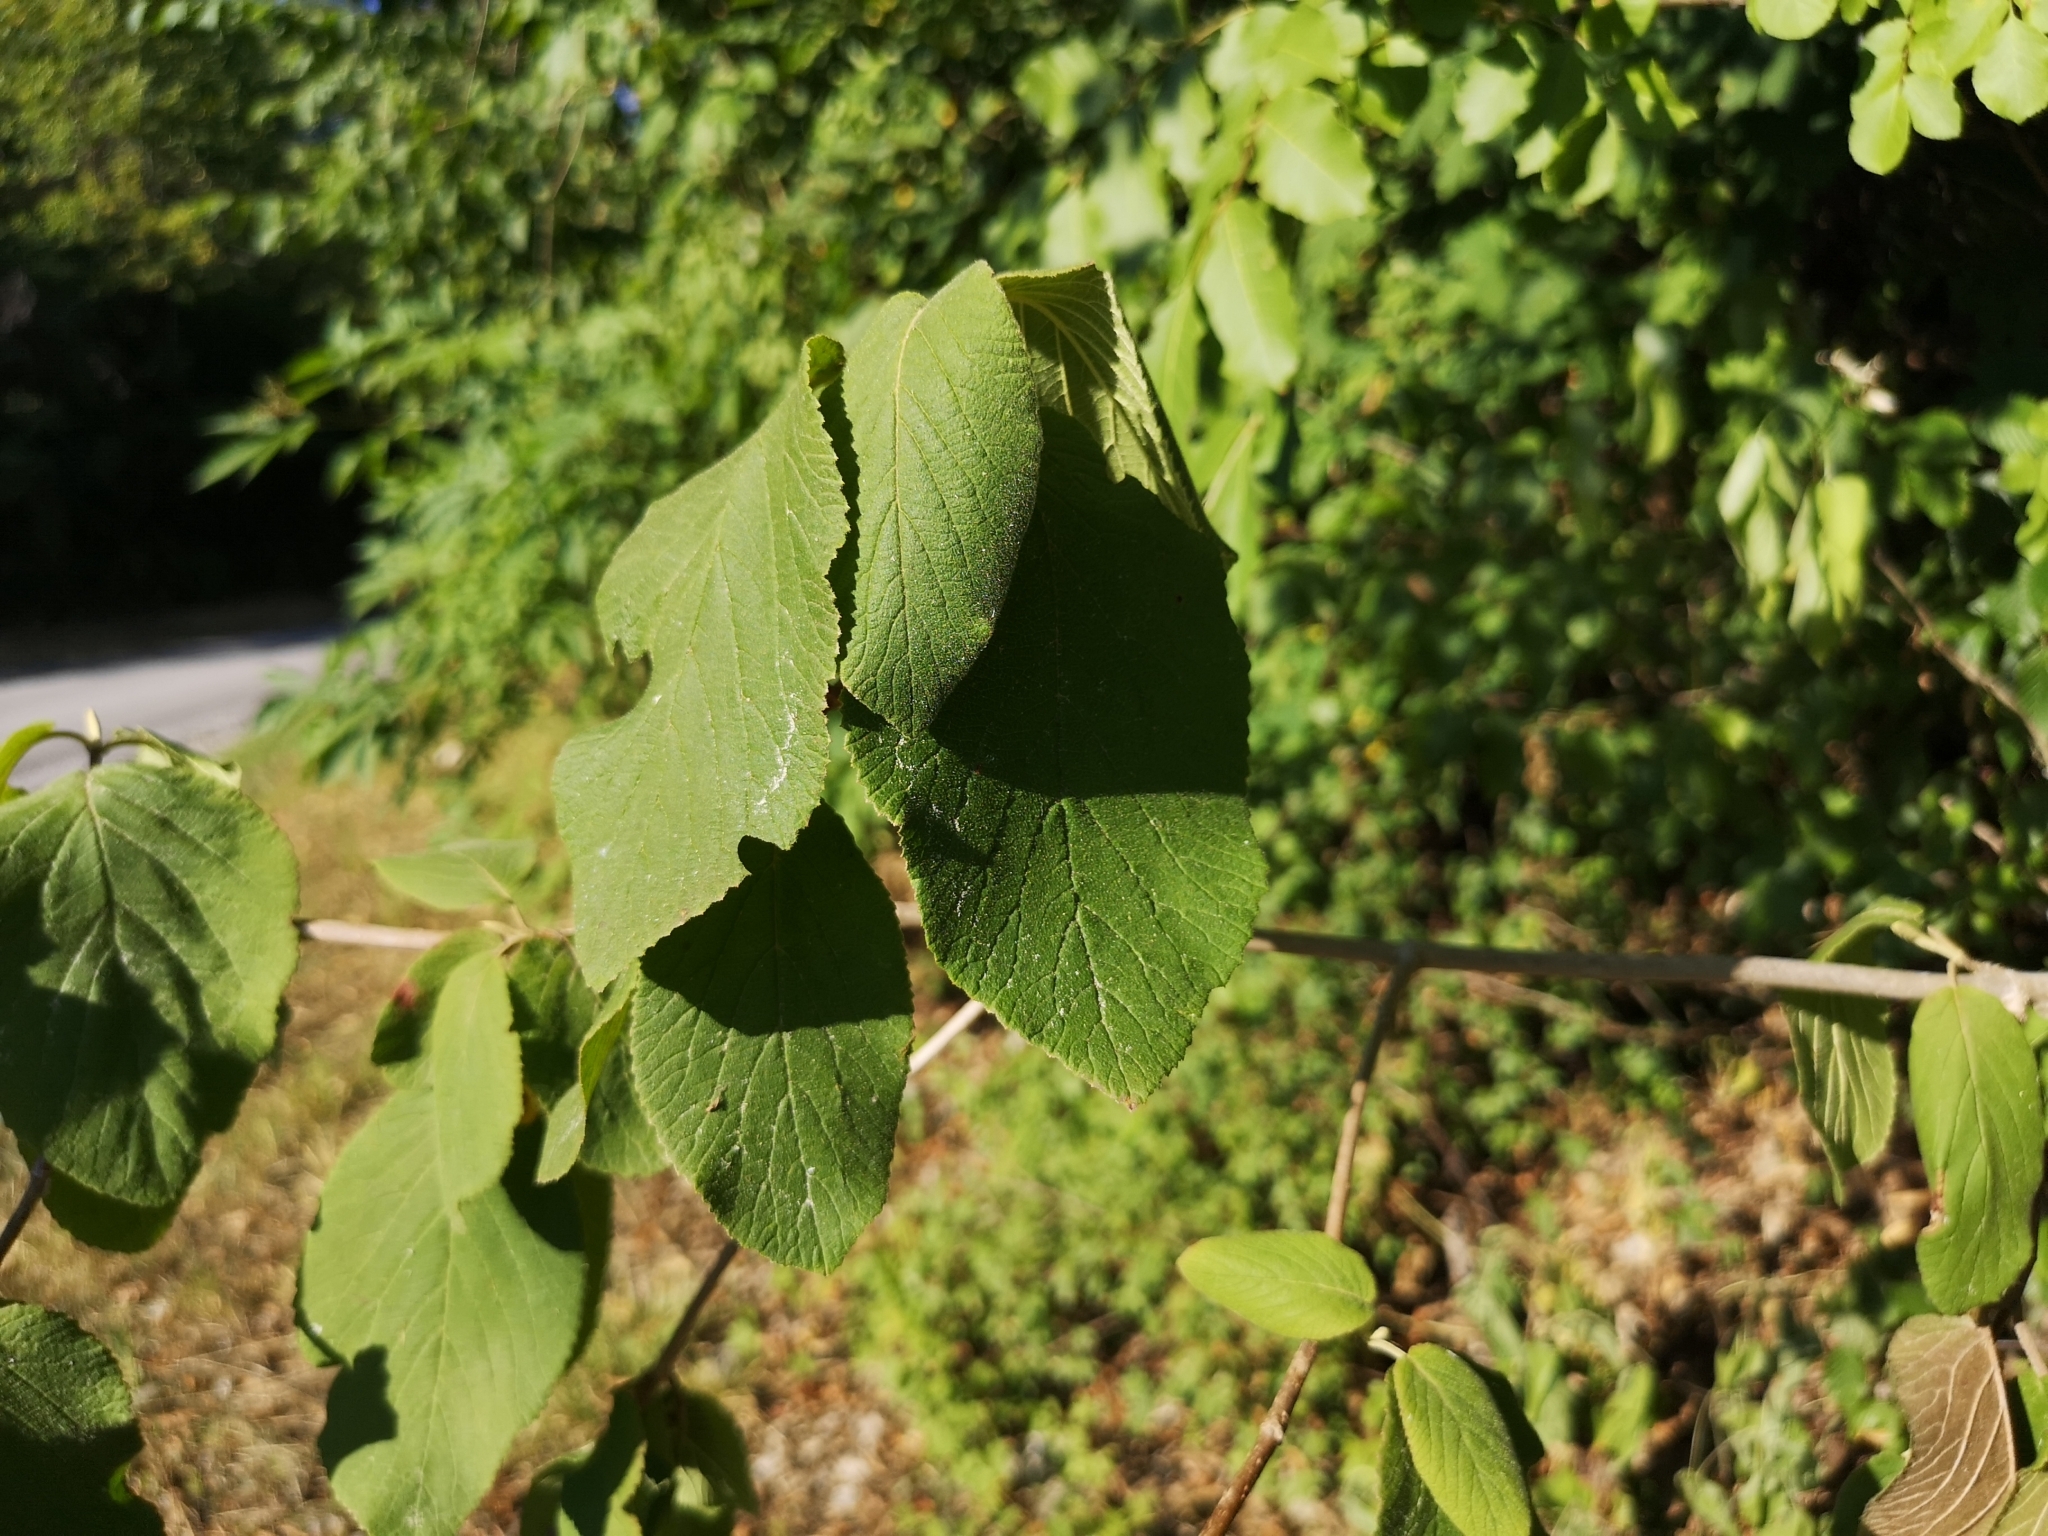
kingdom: Plantae
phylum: Tracheophyta
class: Magnoliopsida
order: Dipsacales
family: Viburnaceae
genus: Viburnum
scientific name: Viburnum lantana
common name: Wayfaring tree
